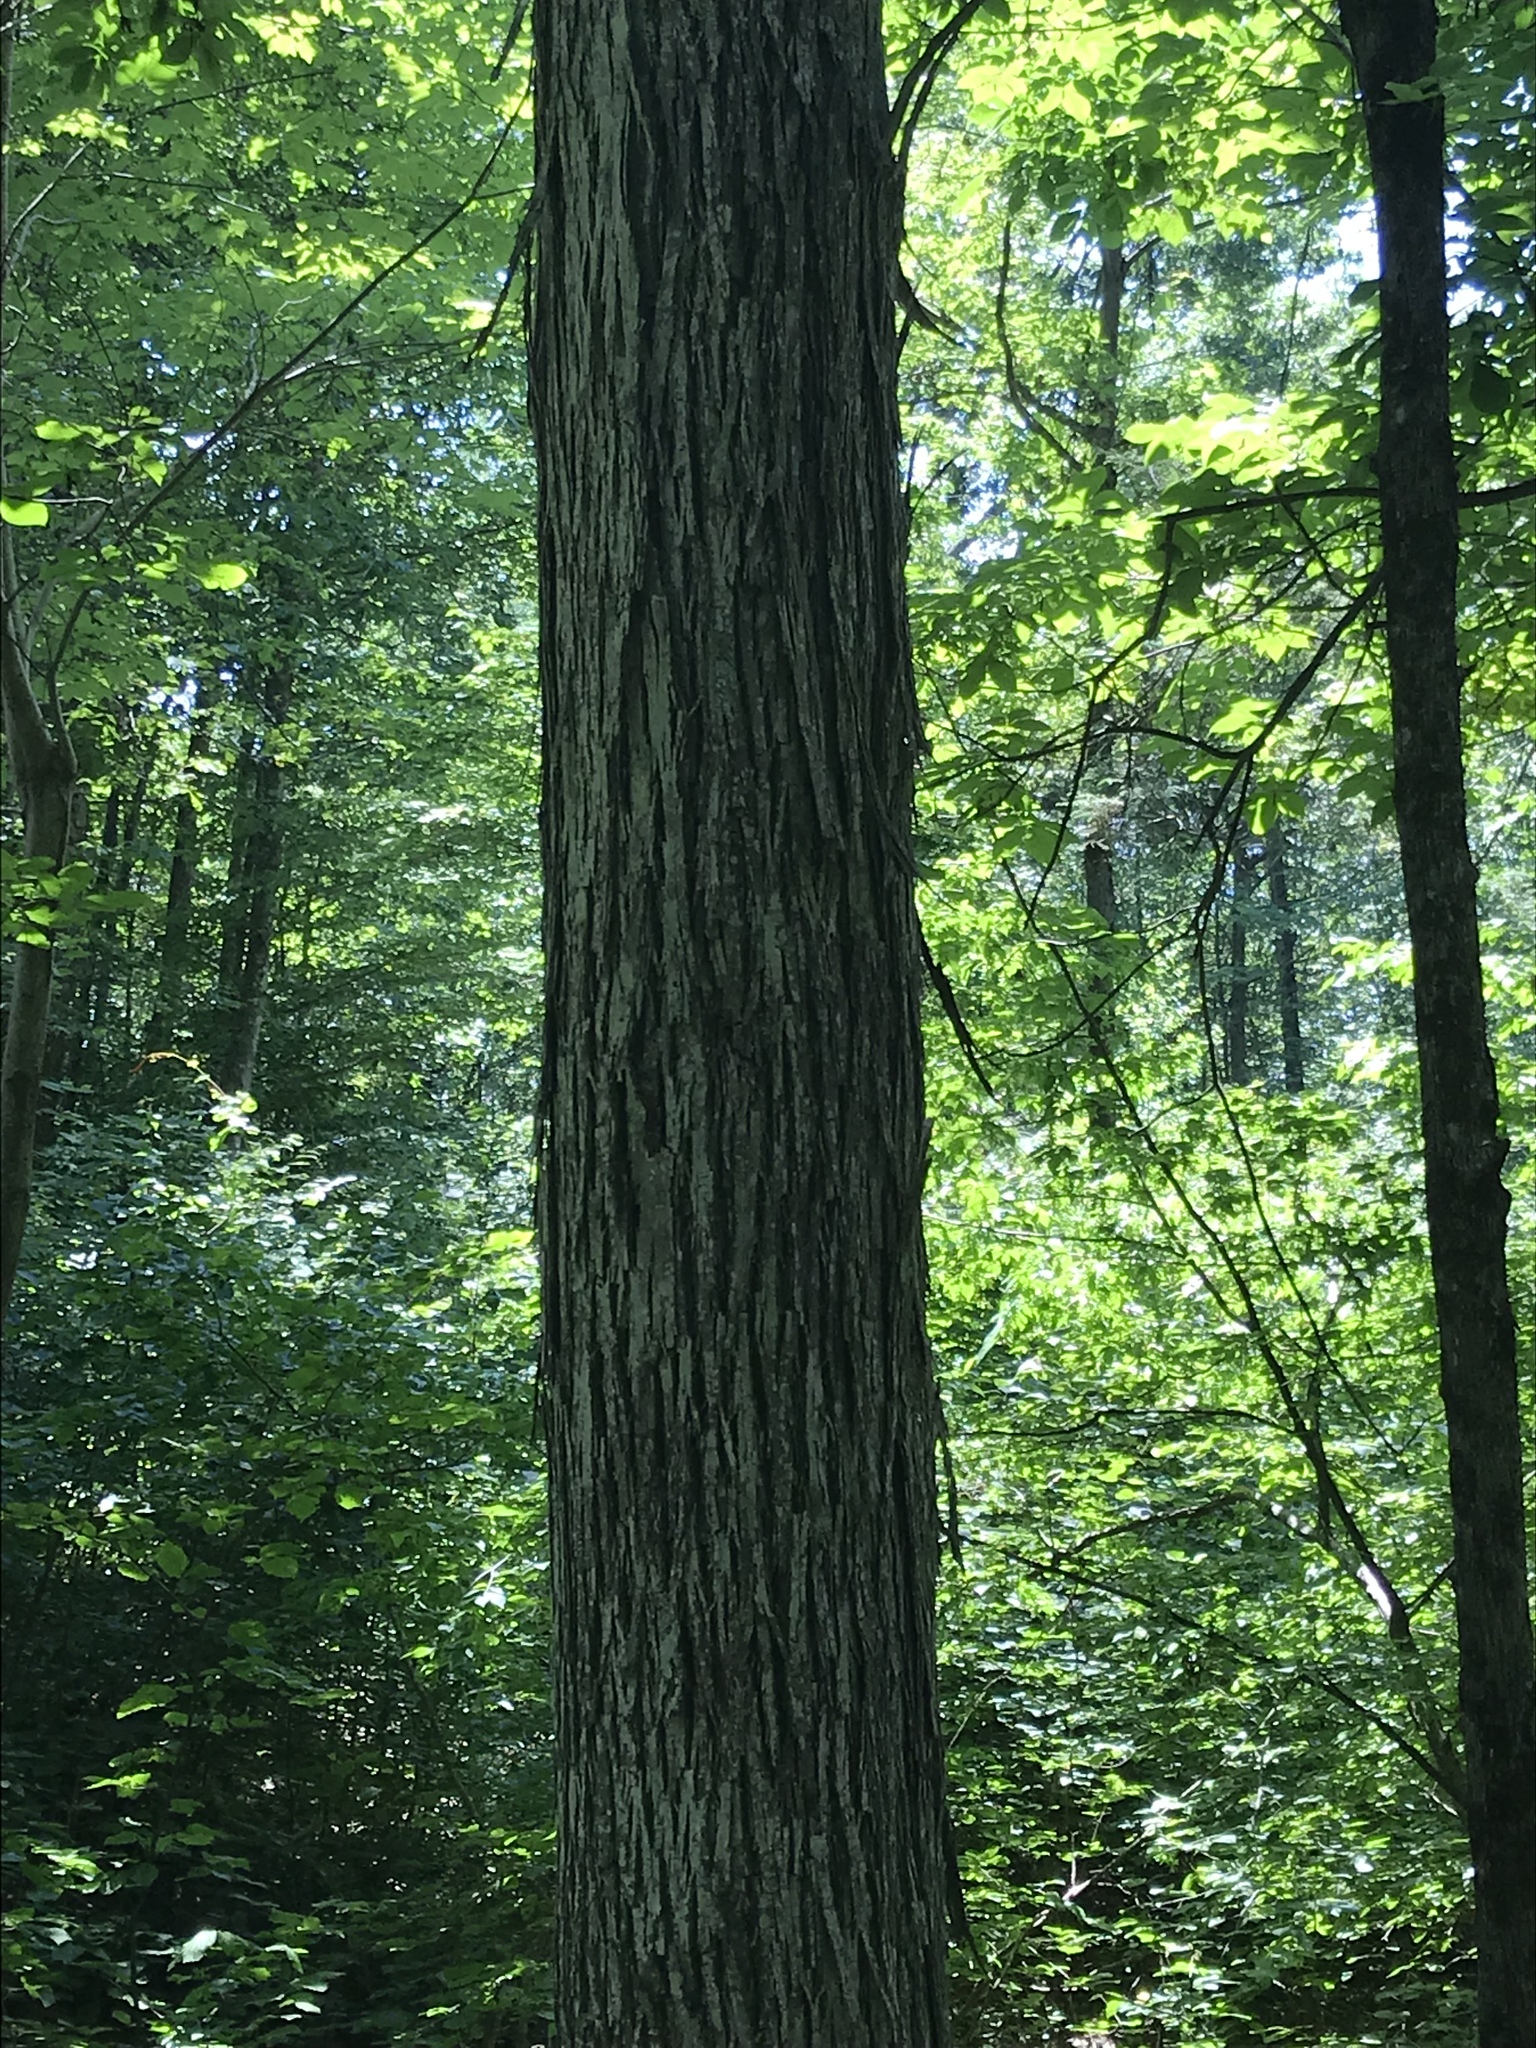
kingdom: Plantae
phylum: Tracheophyta
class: Magnoliopsida
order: Fagales
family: Juglandaceae
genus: Carya
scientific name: Carya ovata
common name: Shagbark hickory
